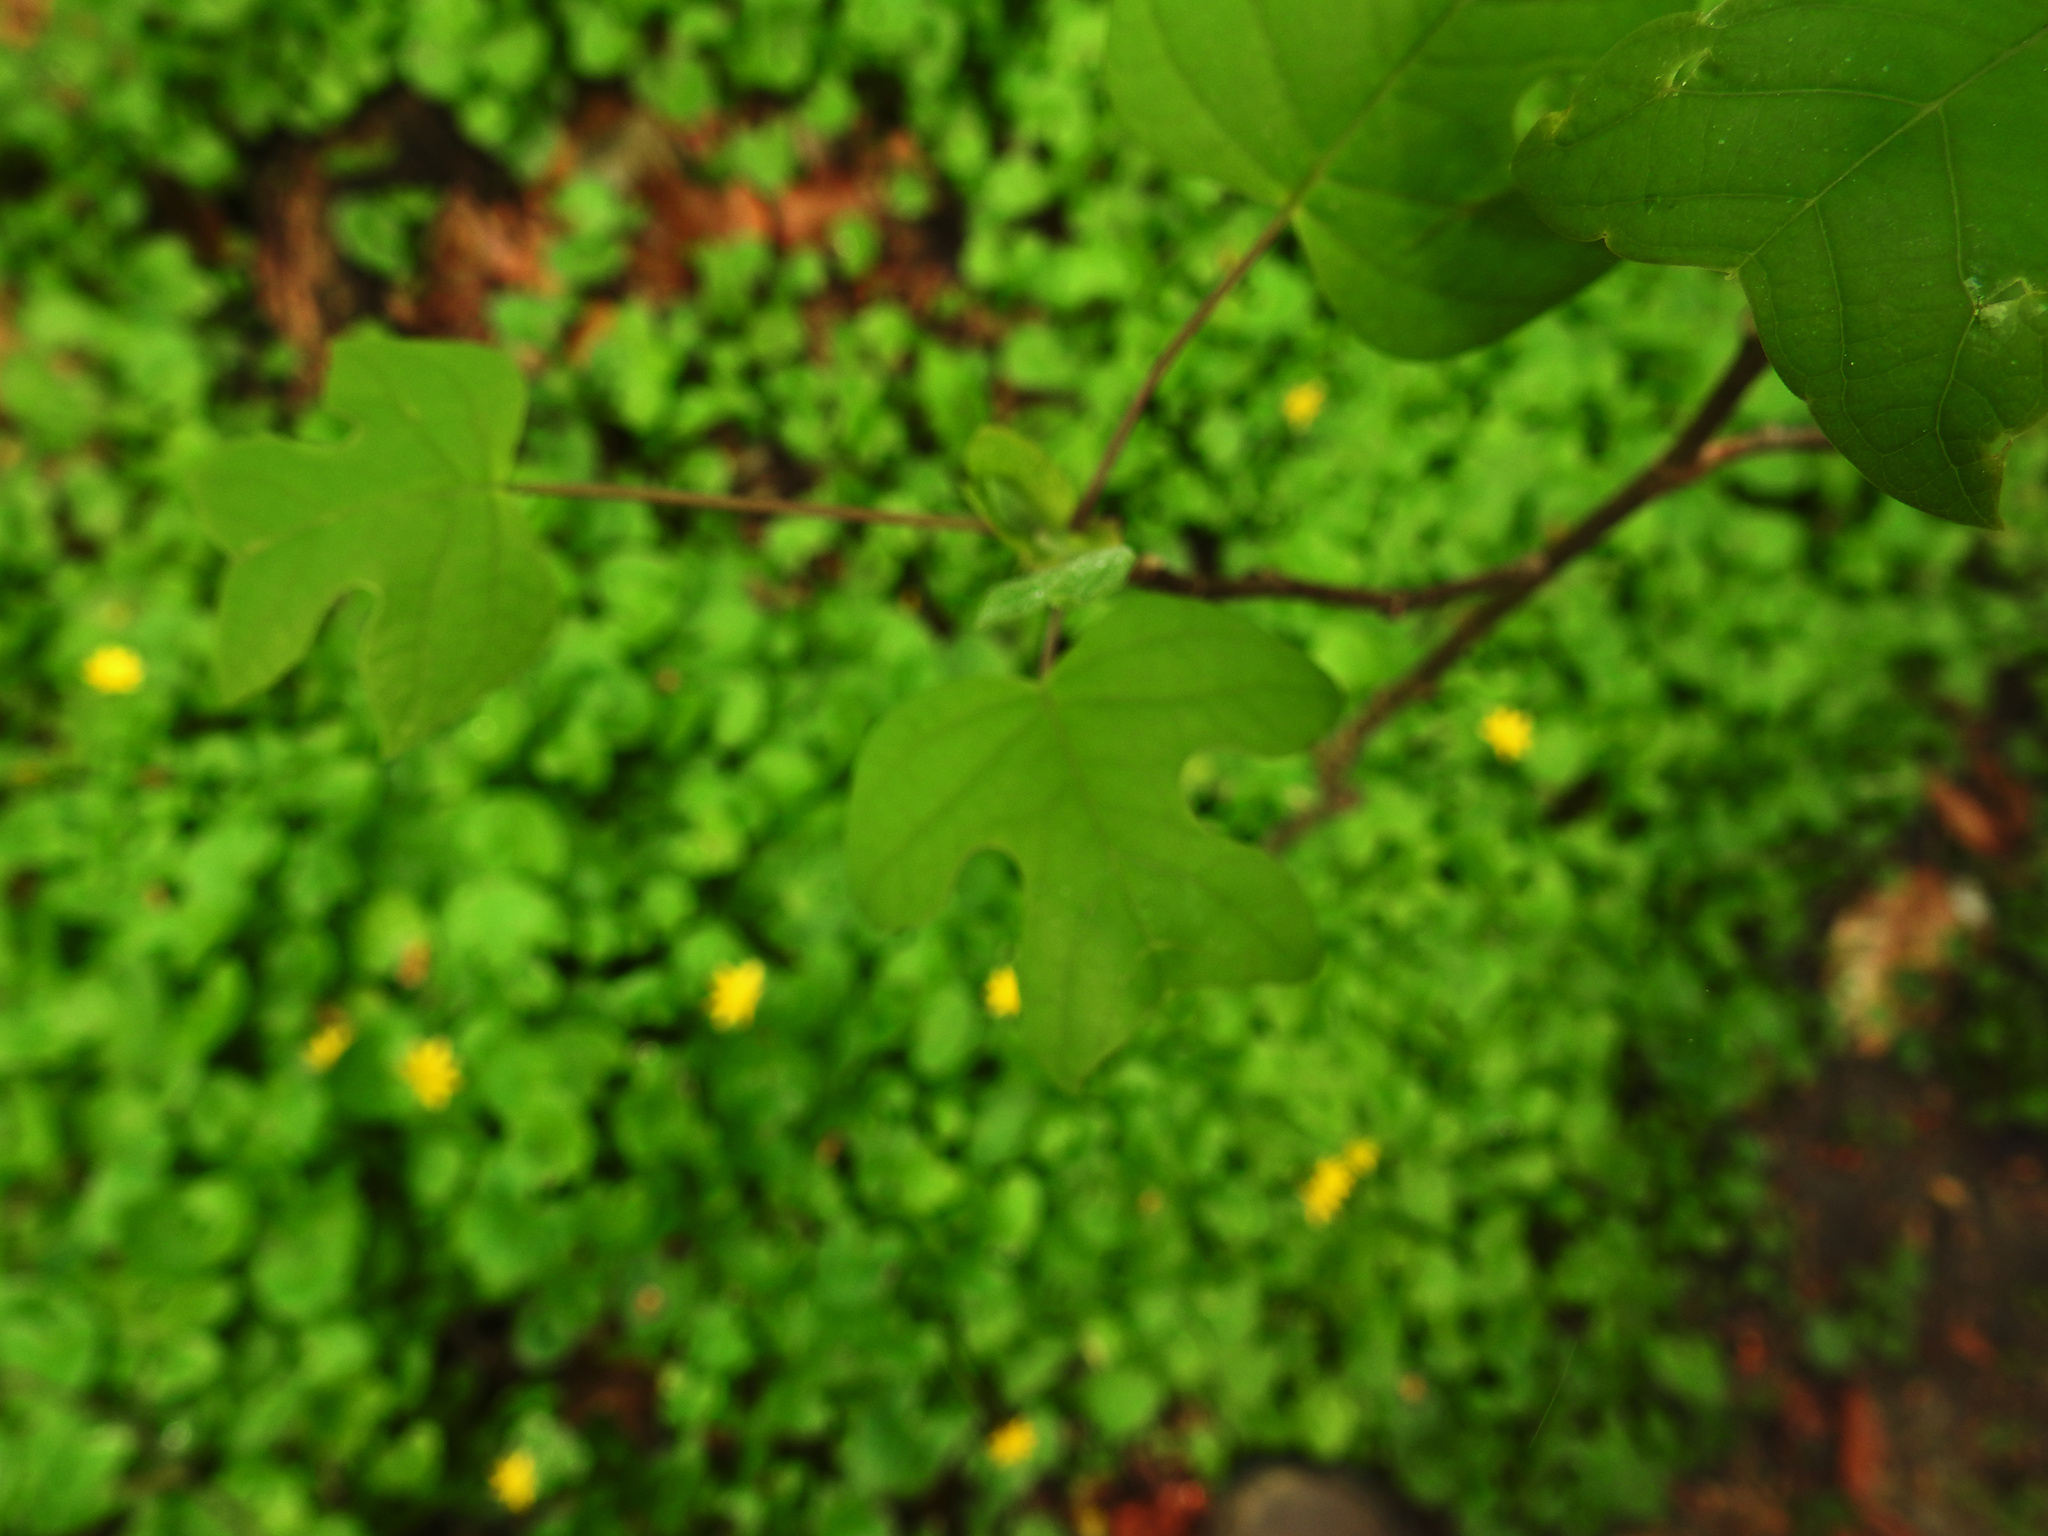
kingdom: Plantae
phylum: Tracheophyta
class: Magnoliopsida
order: Magnoliales
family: Magnoliaceae
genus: Liriodendron
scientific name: Liriodendron tulipifera
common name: Tulip tree
